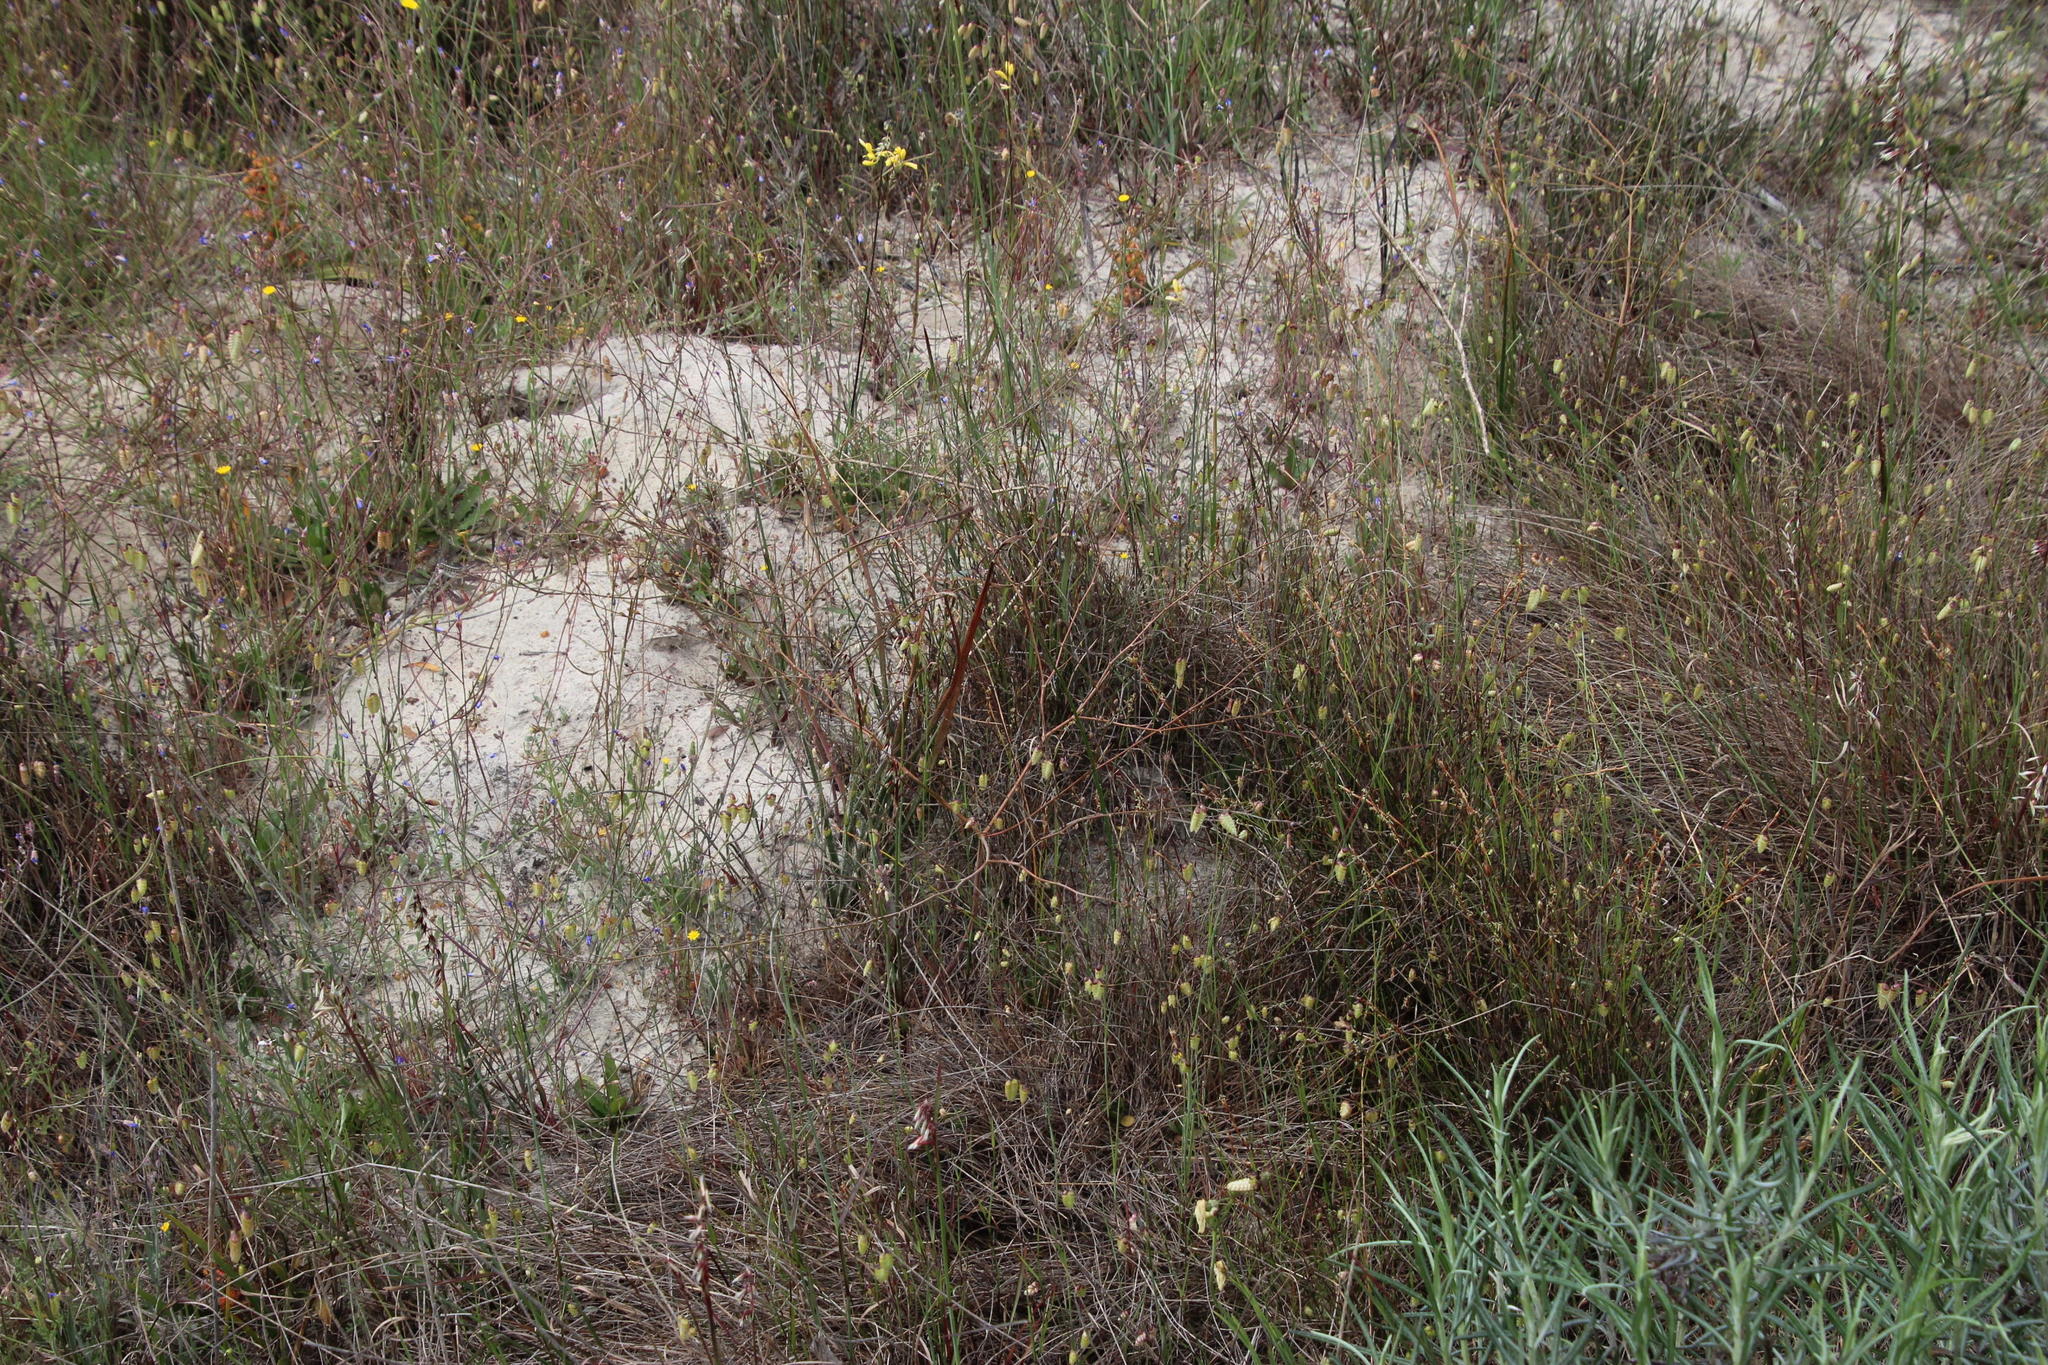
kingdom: Plantae
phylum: Tracheophyta
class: Liliopsida
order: Asparagales
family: Asphodelaceae
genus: Trachyandra
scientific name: Trachyandra revoluta
